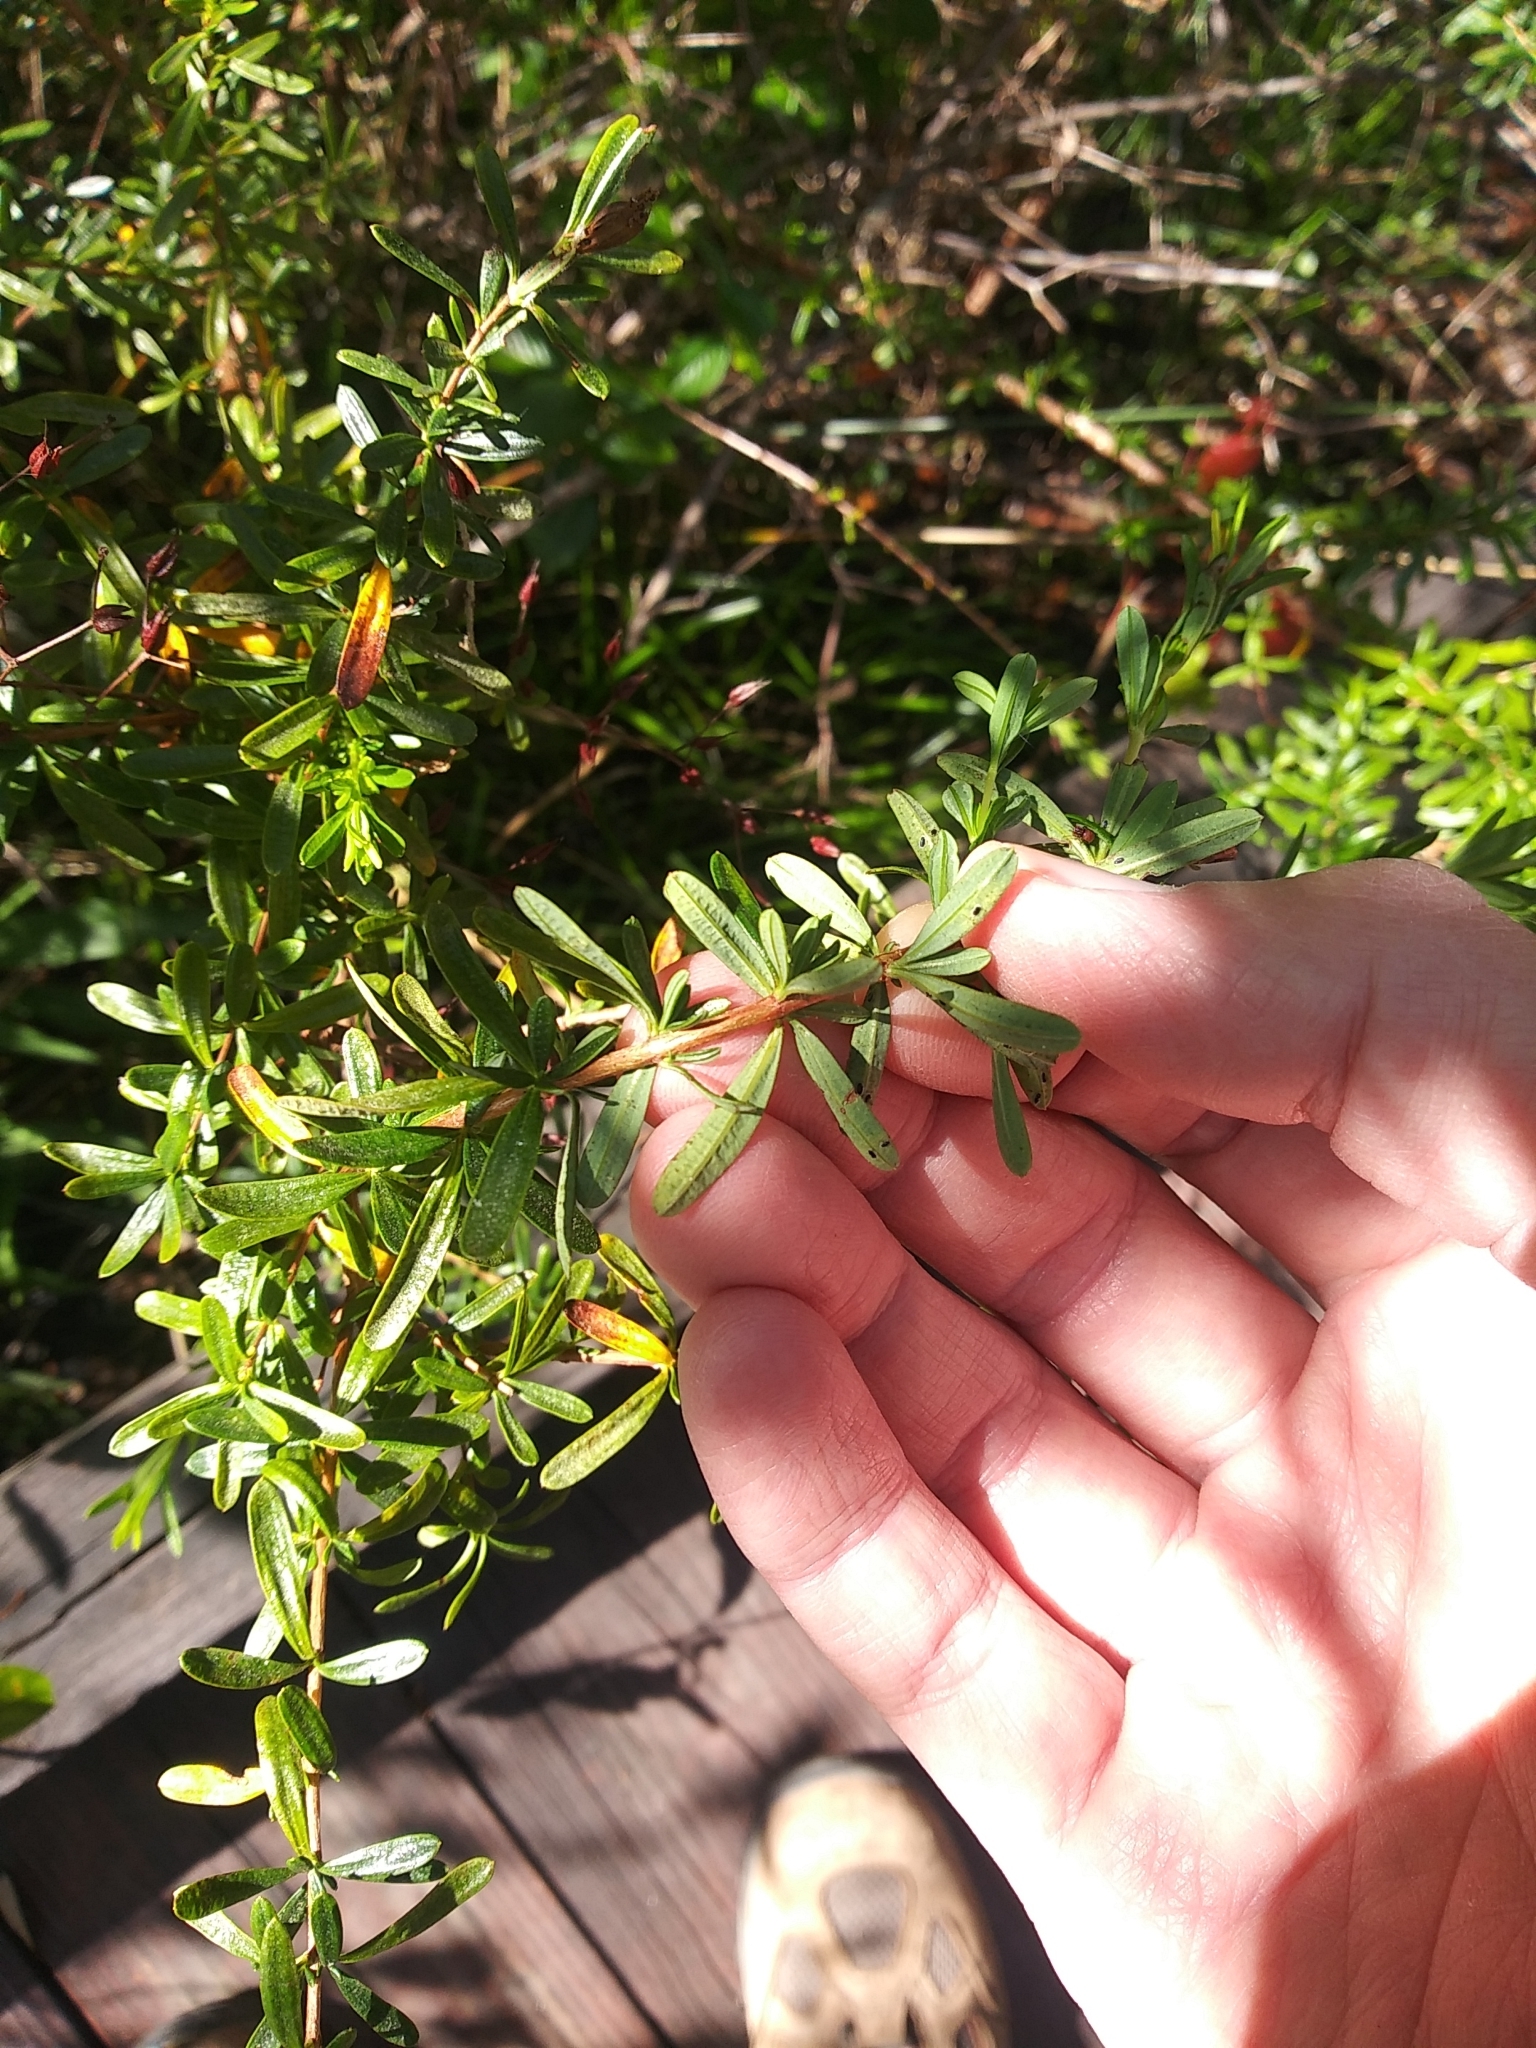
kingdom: Plantae
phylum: Tracheophyta
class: Magnoliopsida
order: Malpighiales
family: Hypericaceae
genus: Hypericum
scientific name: Hypericum galioides
